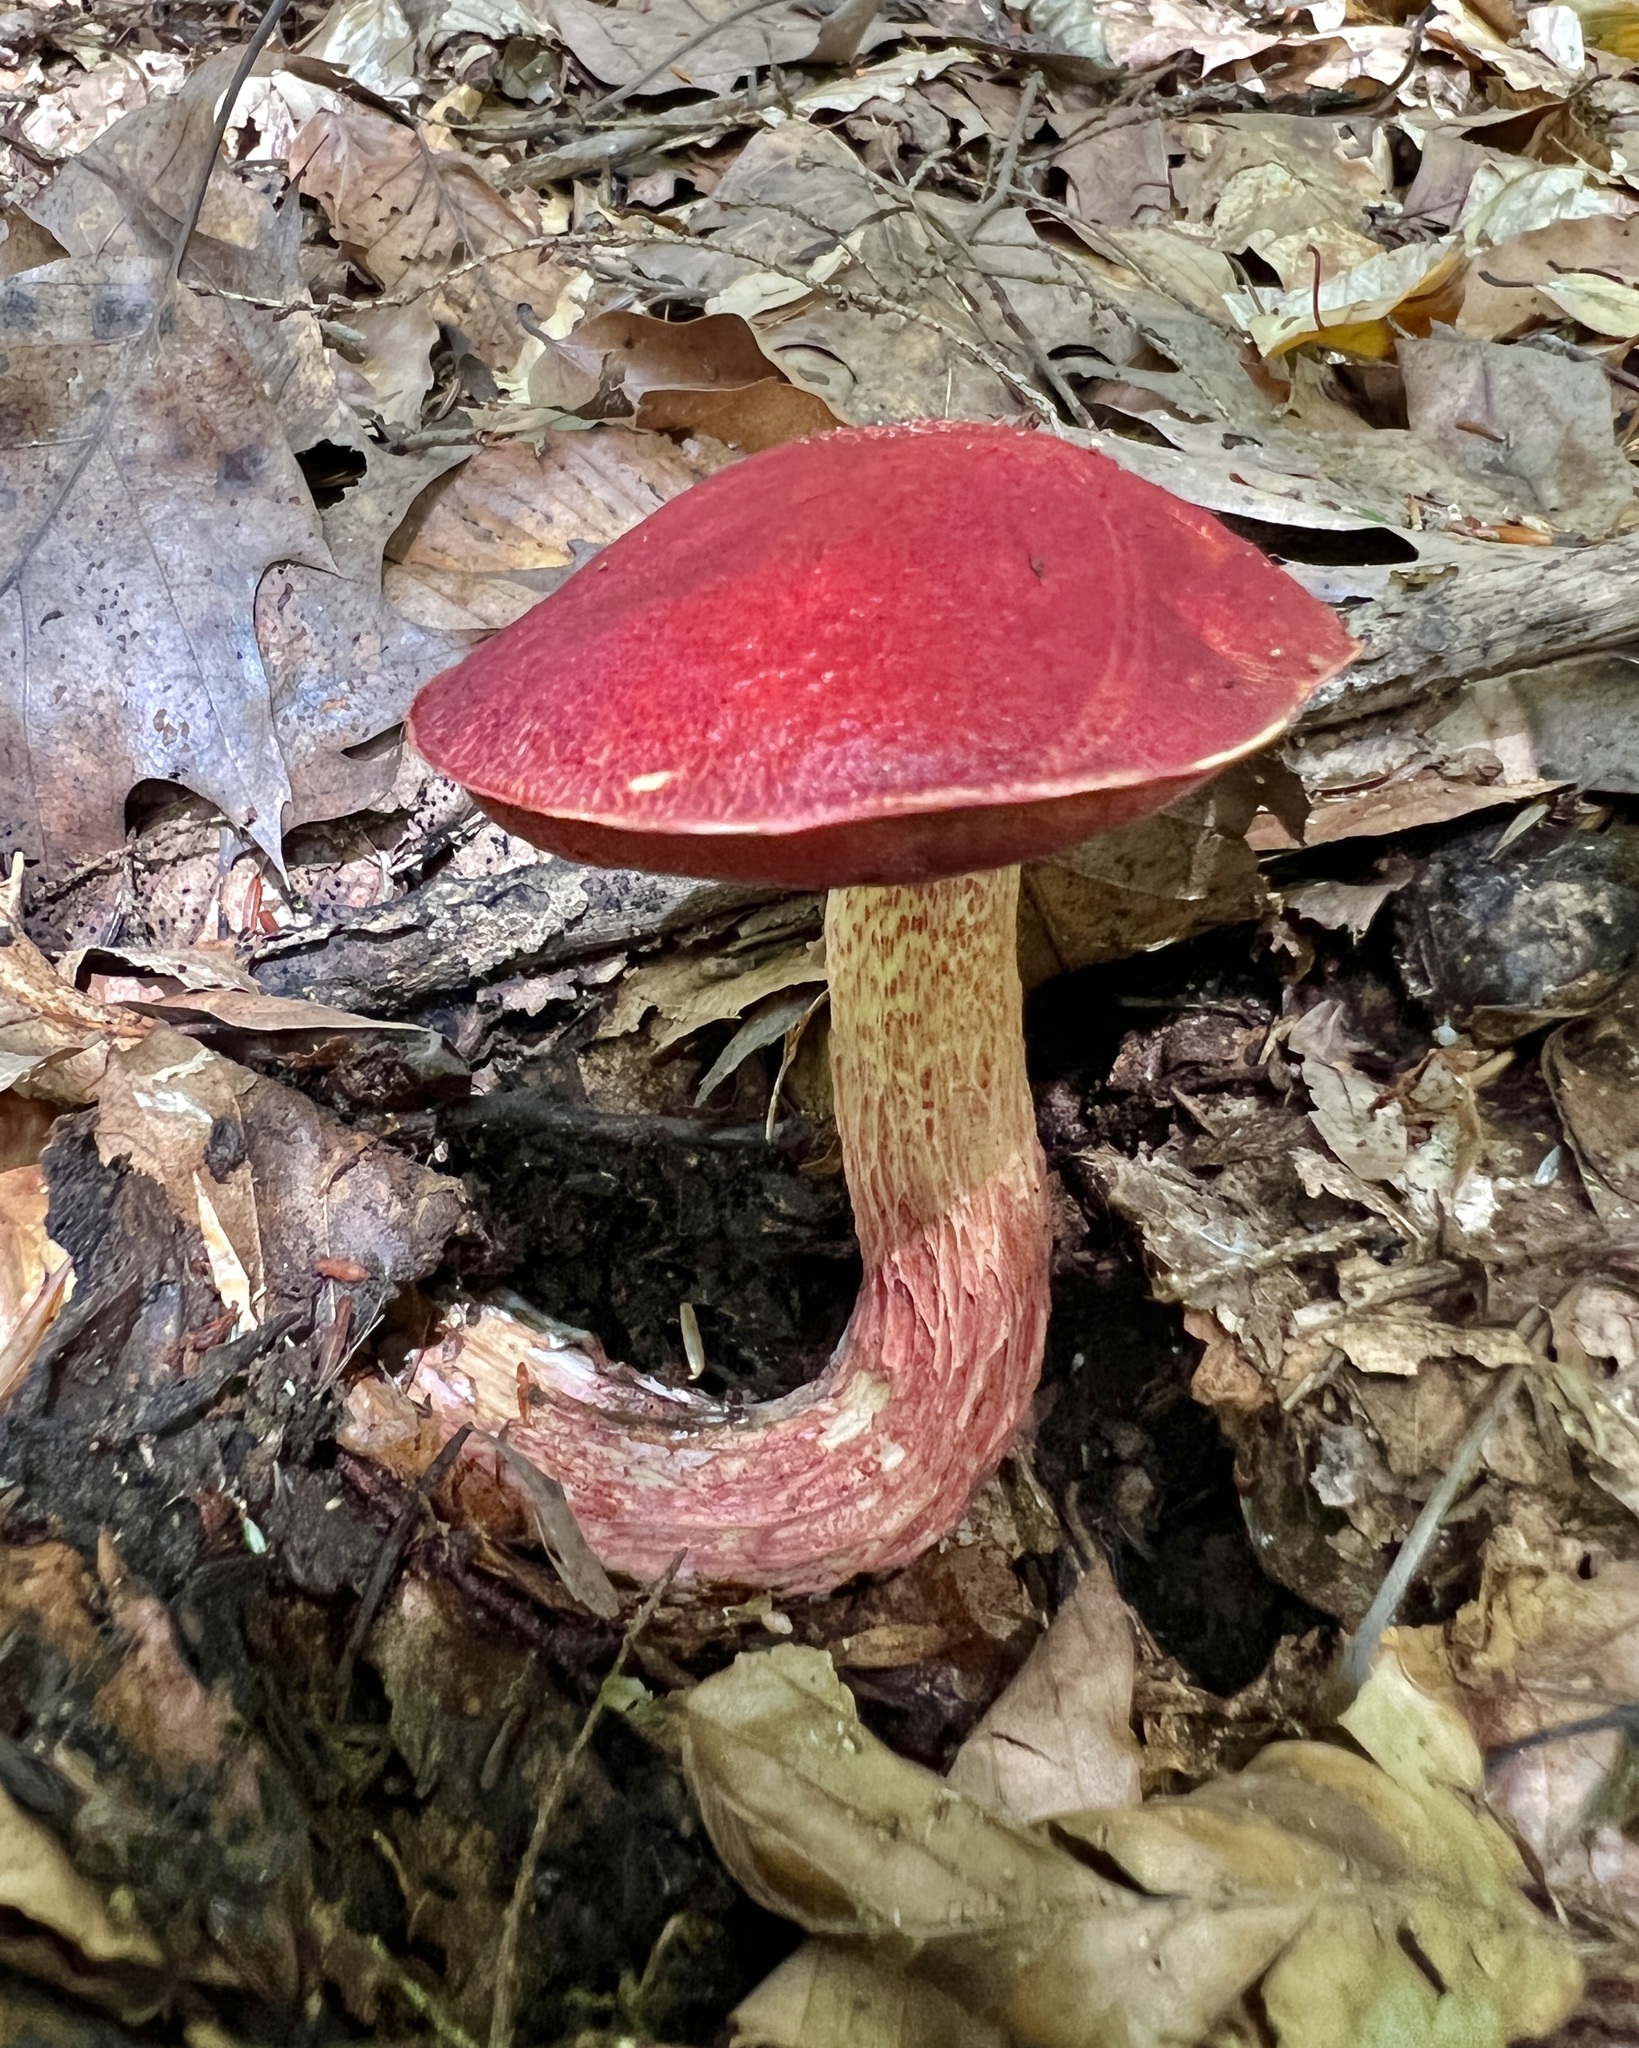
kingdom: Fungi
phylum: Basidiomycota
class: Agaricomycetes
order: Boletales
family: Boletaceae
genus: Butyriboletus
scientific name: Butyriboletus frostii
